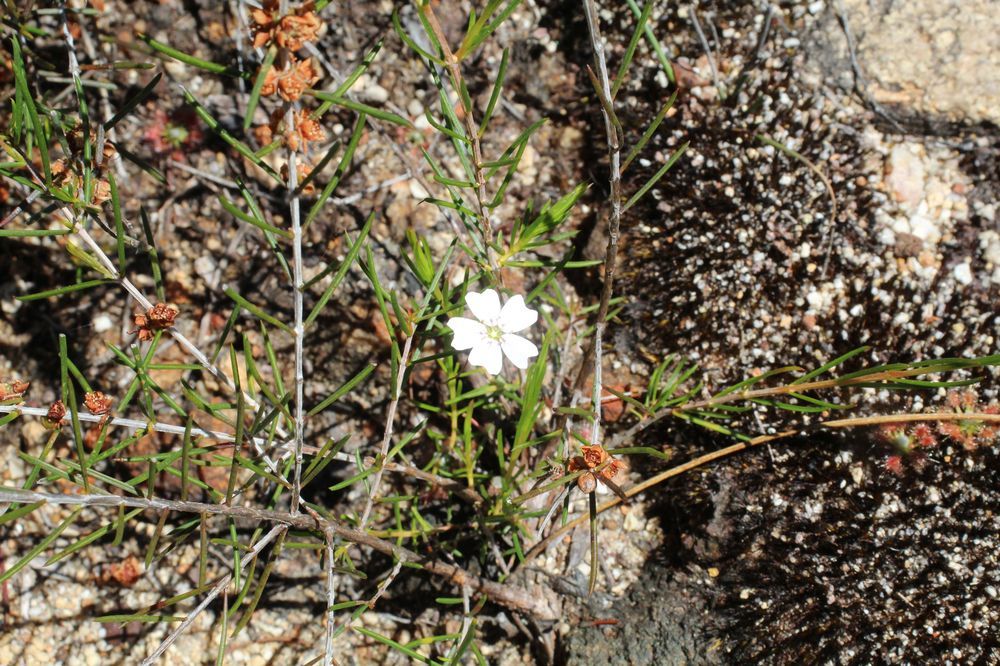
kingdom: Plantae
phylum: Tracheophyta
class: Magnoliopsida
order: Caryophyllales
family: Droseraceae
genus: Drosera
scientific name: Drosera mannii
